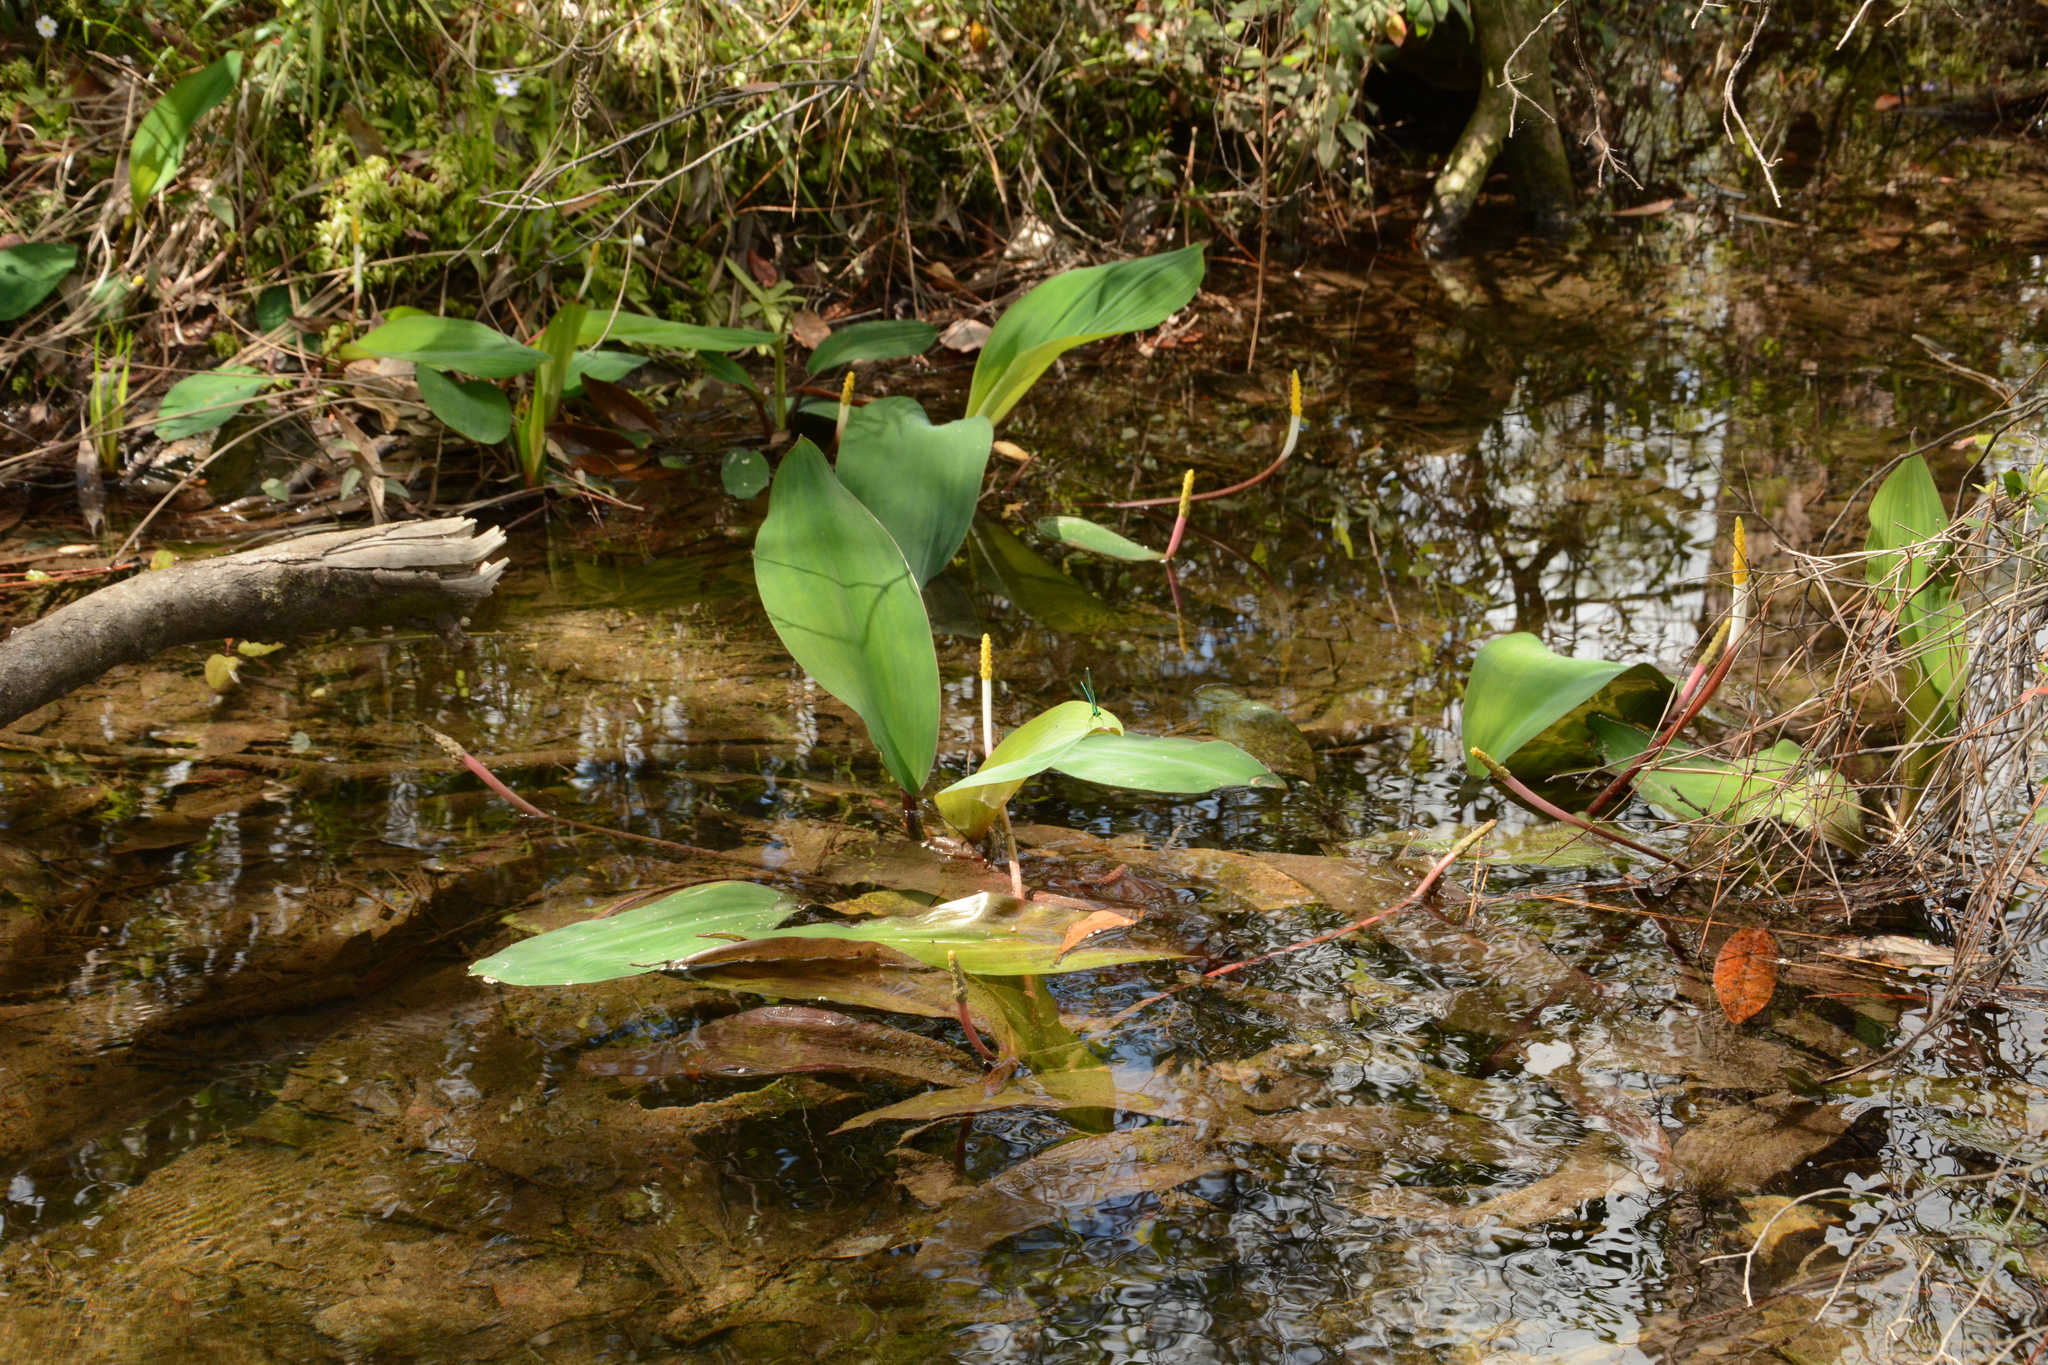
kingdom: Plantae
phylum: Tracheophyta
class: Liliopsida
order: Alismatales
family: Araceae
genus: Orontium
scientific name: Orontium aquaticum
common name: Golden-club
